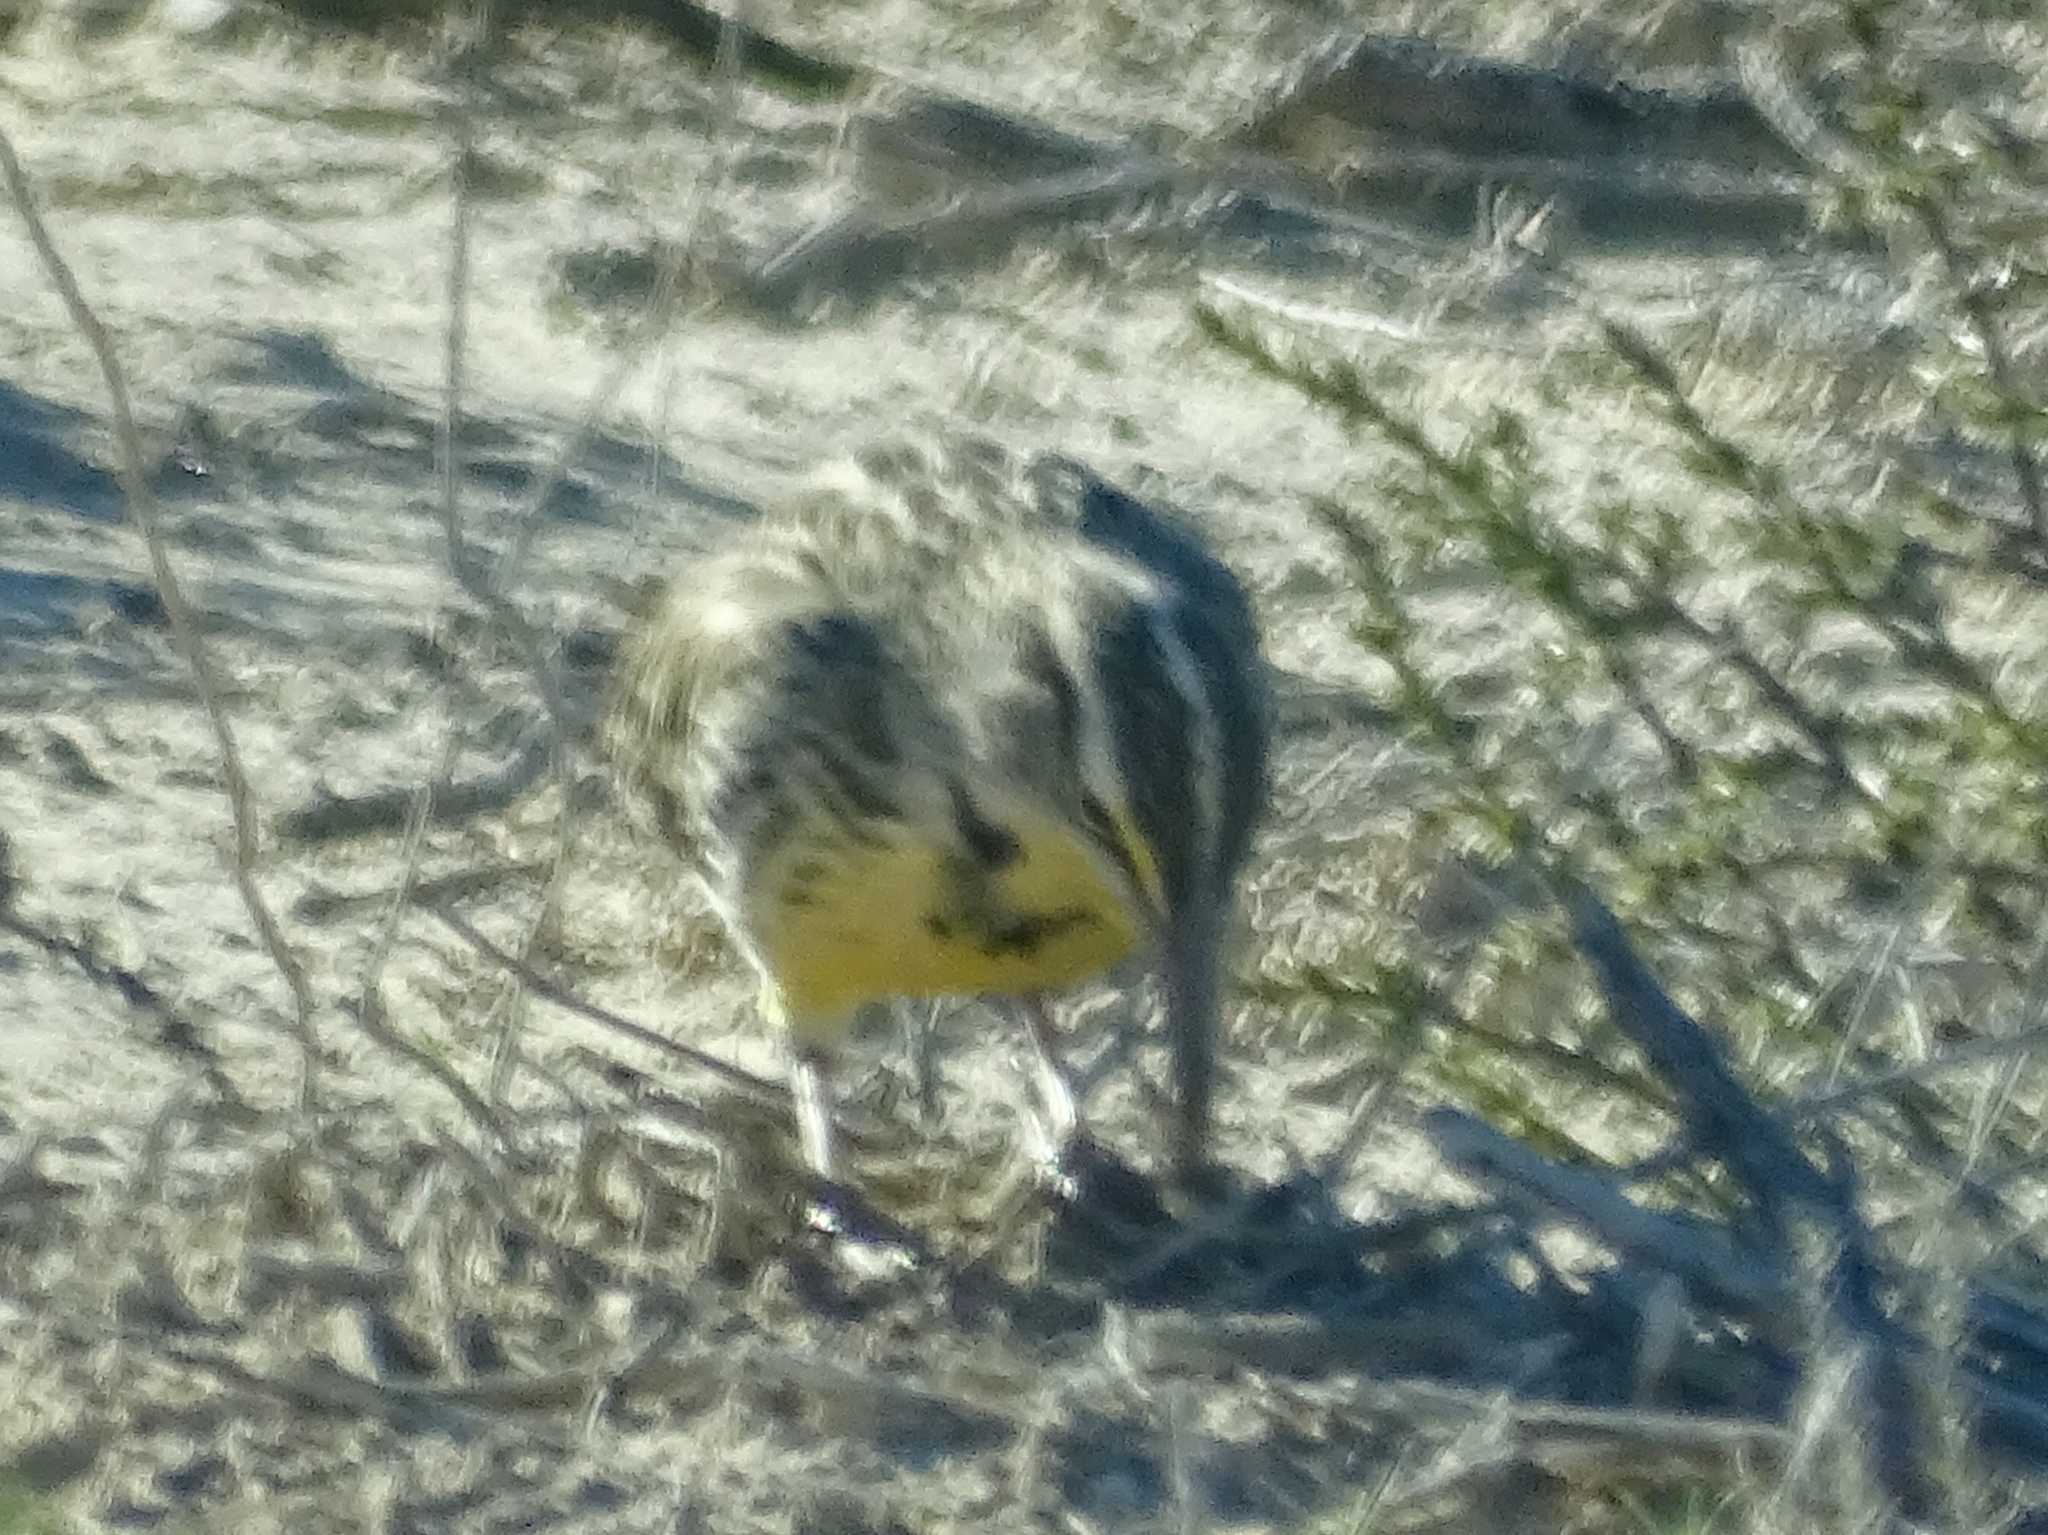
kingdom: Animalia
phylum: Chordata
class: Aves
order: Passeriformes
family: Icteridae
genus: Sturnella
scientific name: Sturnella neglecta
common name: Western meadowlark
